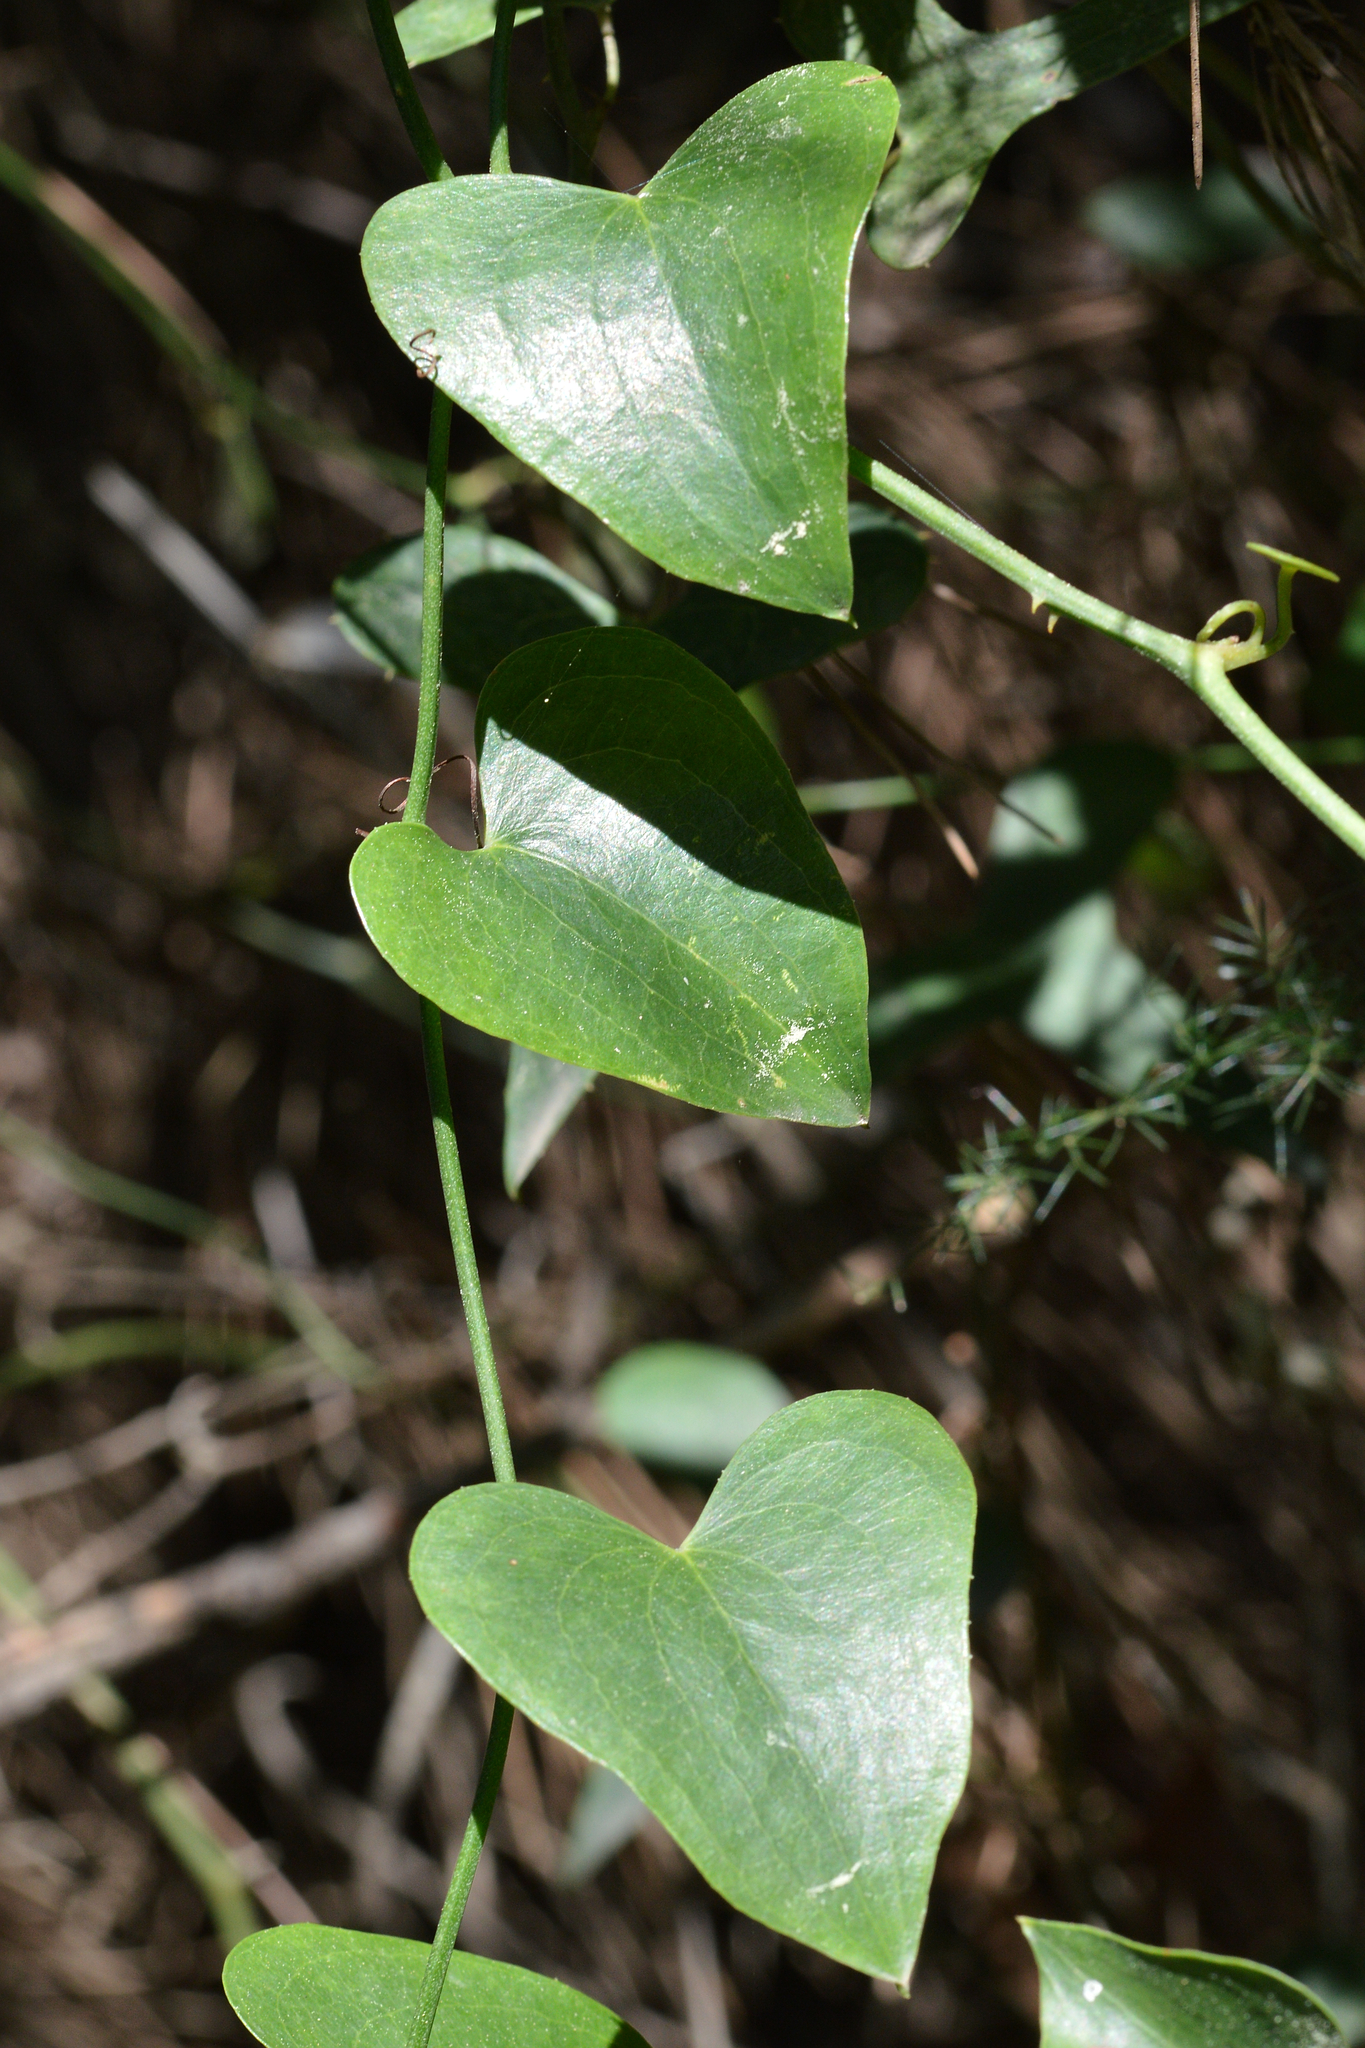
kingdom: Plantae
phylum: Tracheophyta
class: Liliopsida
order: Liliales
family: Smilacaceae
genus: Smilax
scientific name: Smilax aspera
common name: Common smilax
